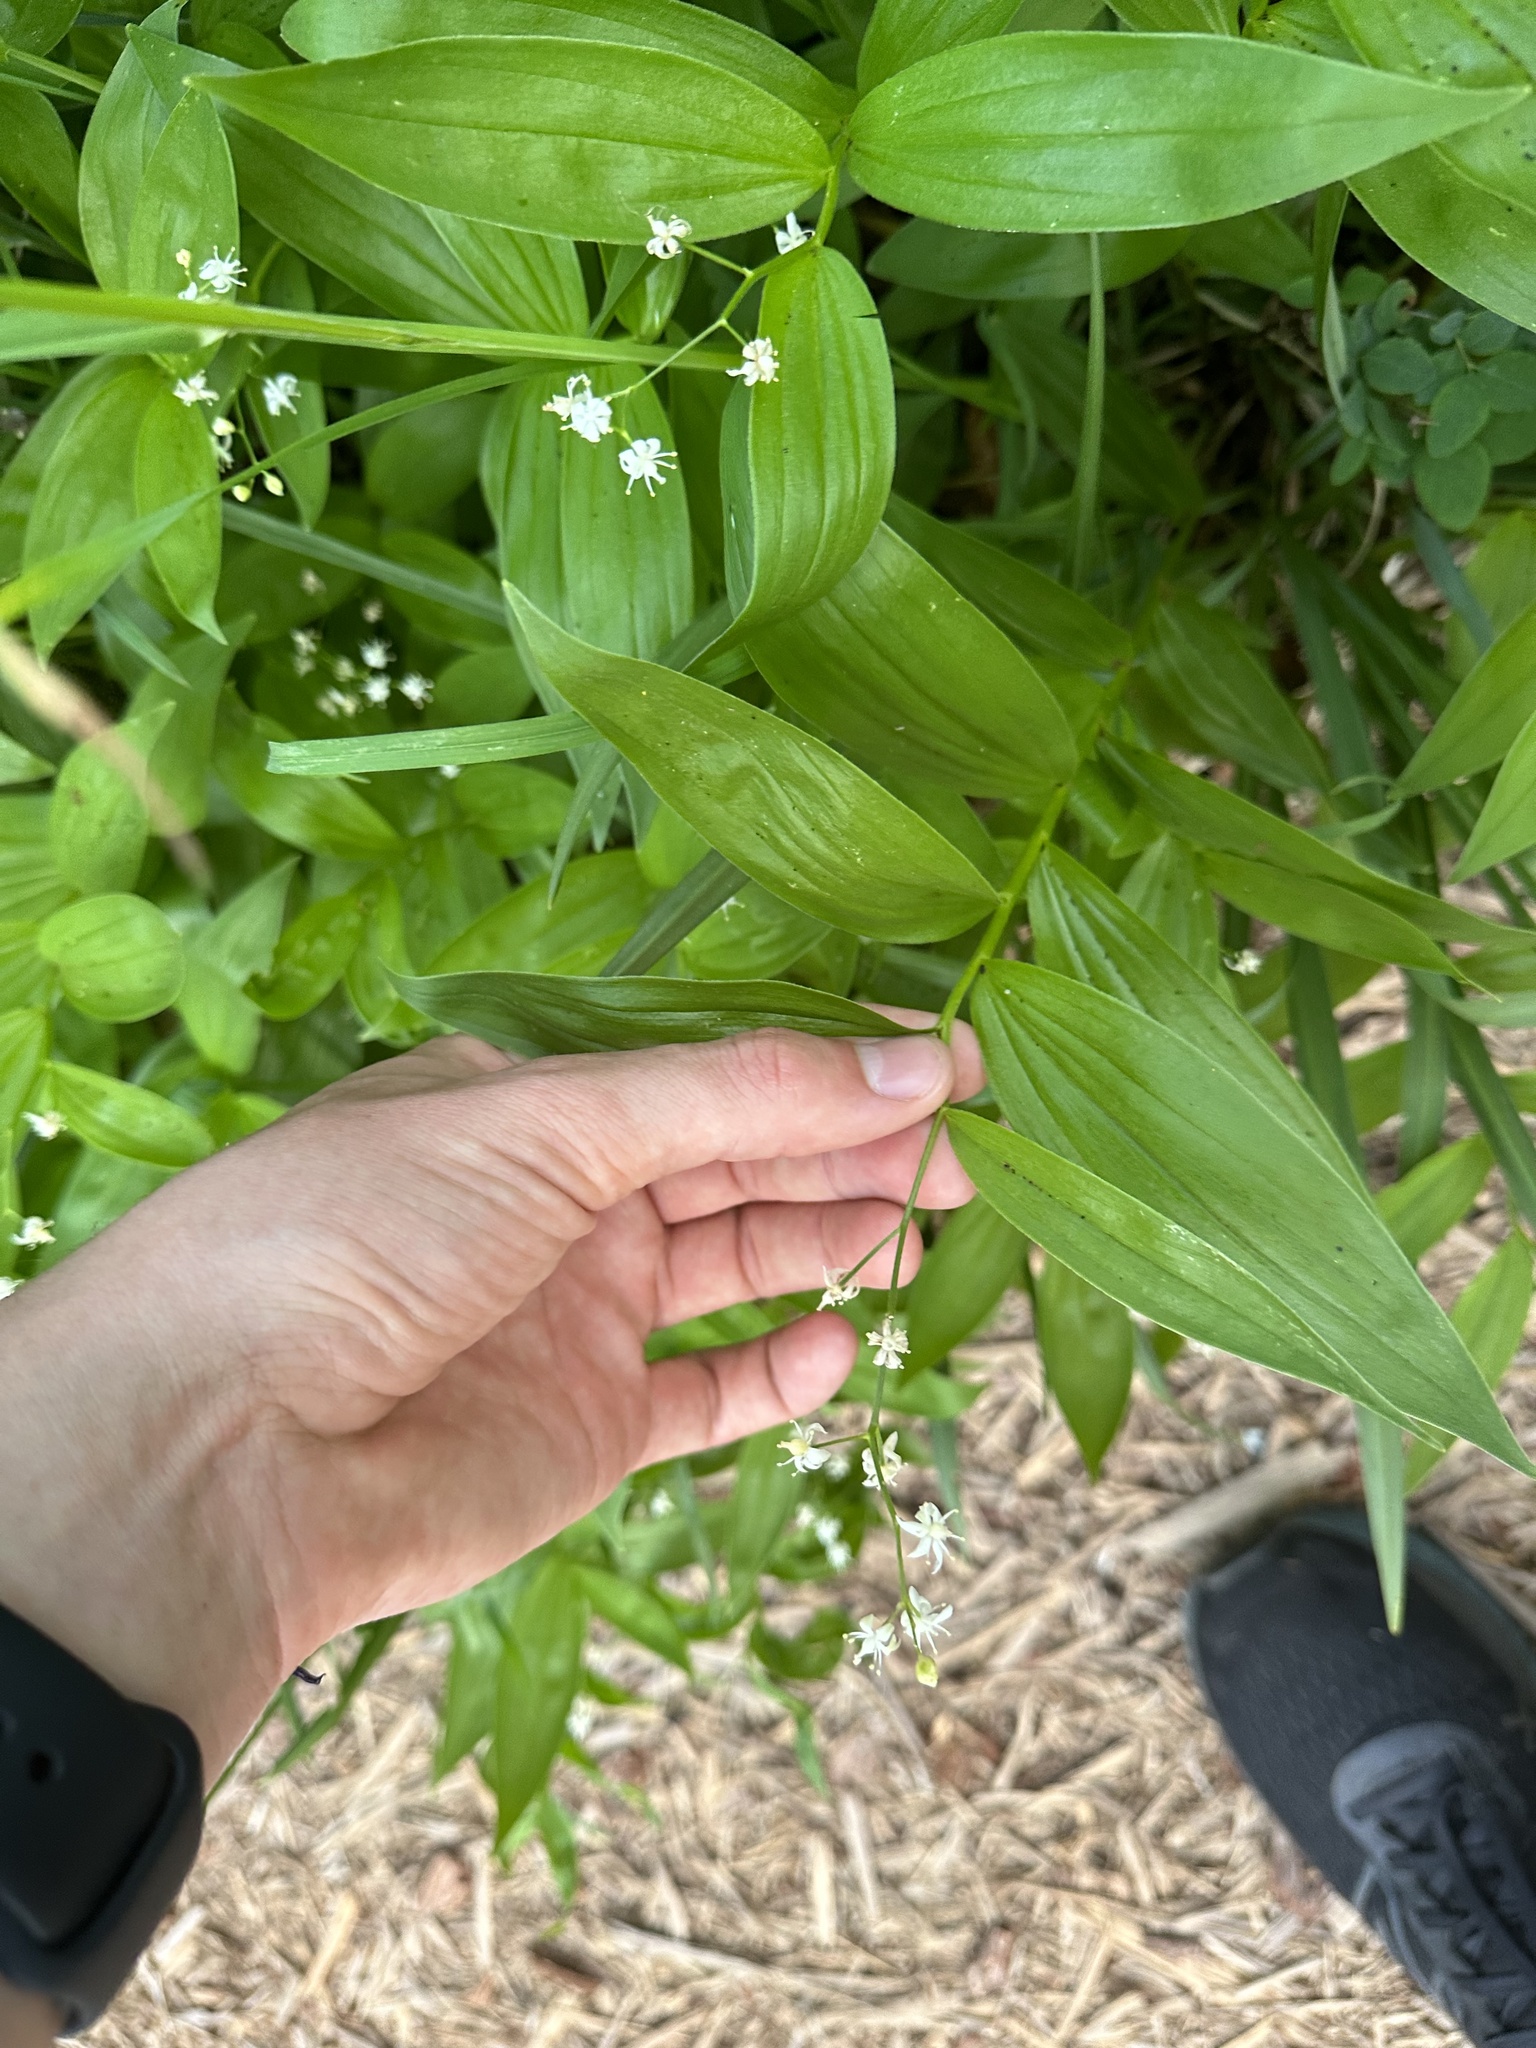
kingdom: Plantae
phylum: Tracheophyta
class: Liliopsida
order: Asparagales
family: Asparagaceae
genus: Maianthemum
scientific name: Maianthemum stellatum
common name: Little false solomon's seal
